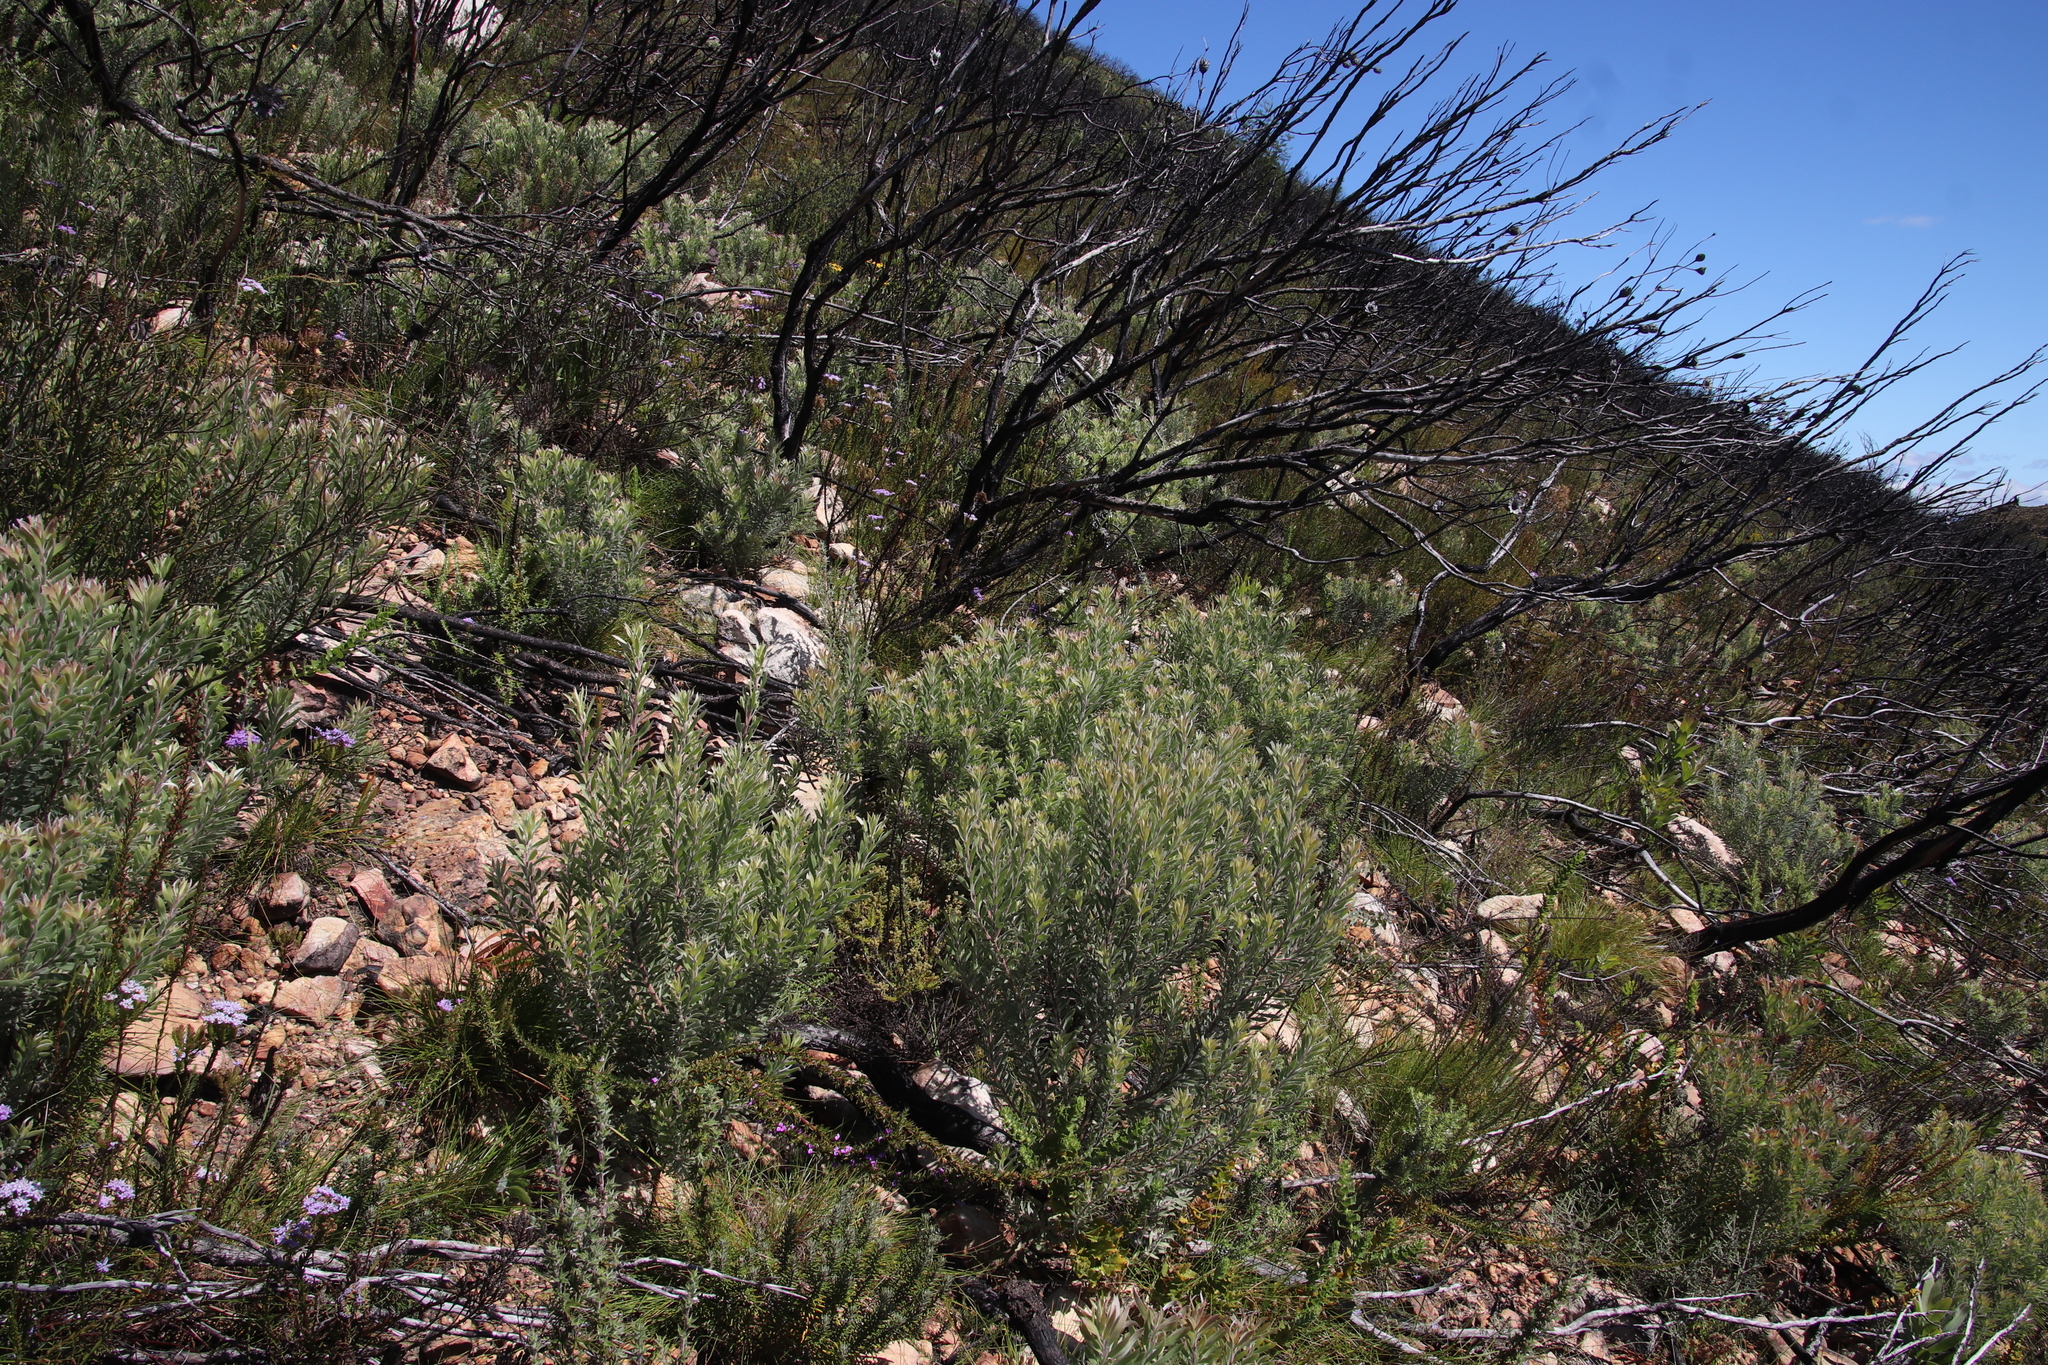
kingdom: Plantae
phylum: Tracheophyta
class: Magnoliopsida
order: Proteales
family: Proteaceae
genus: Leucadendron
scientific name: Leucadendron rubrum
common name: Spinning top
